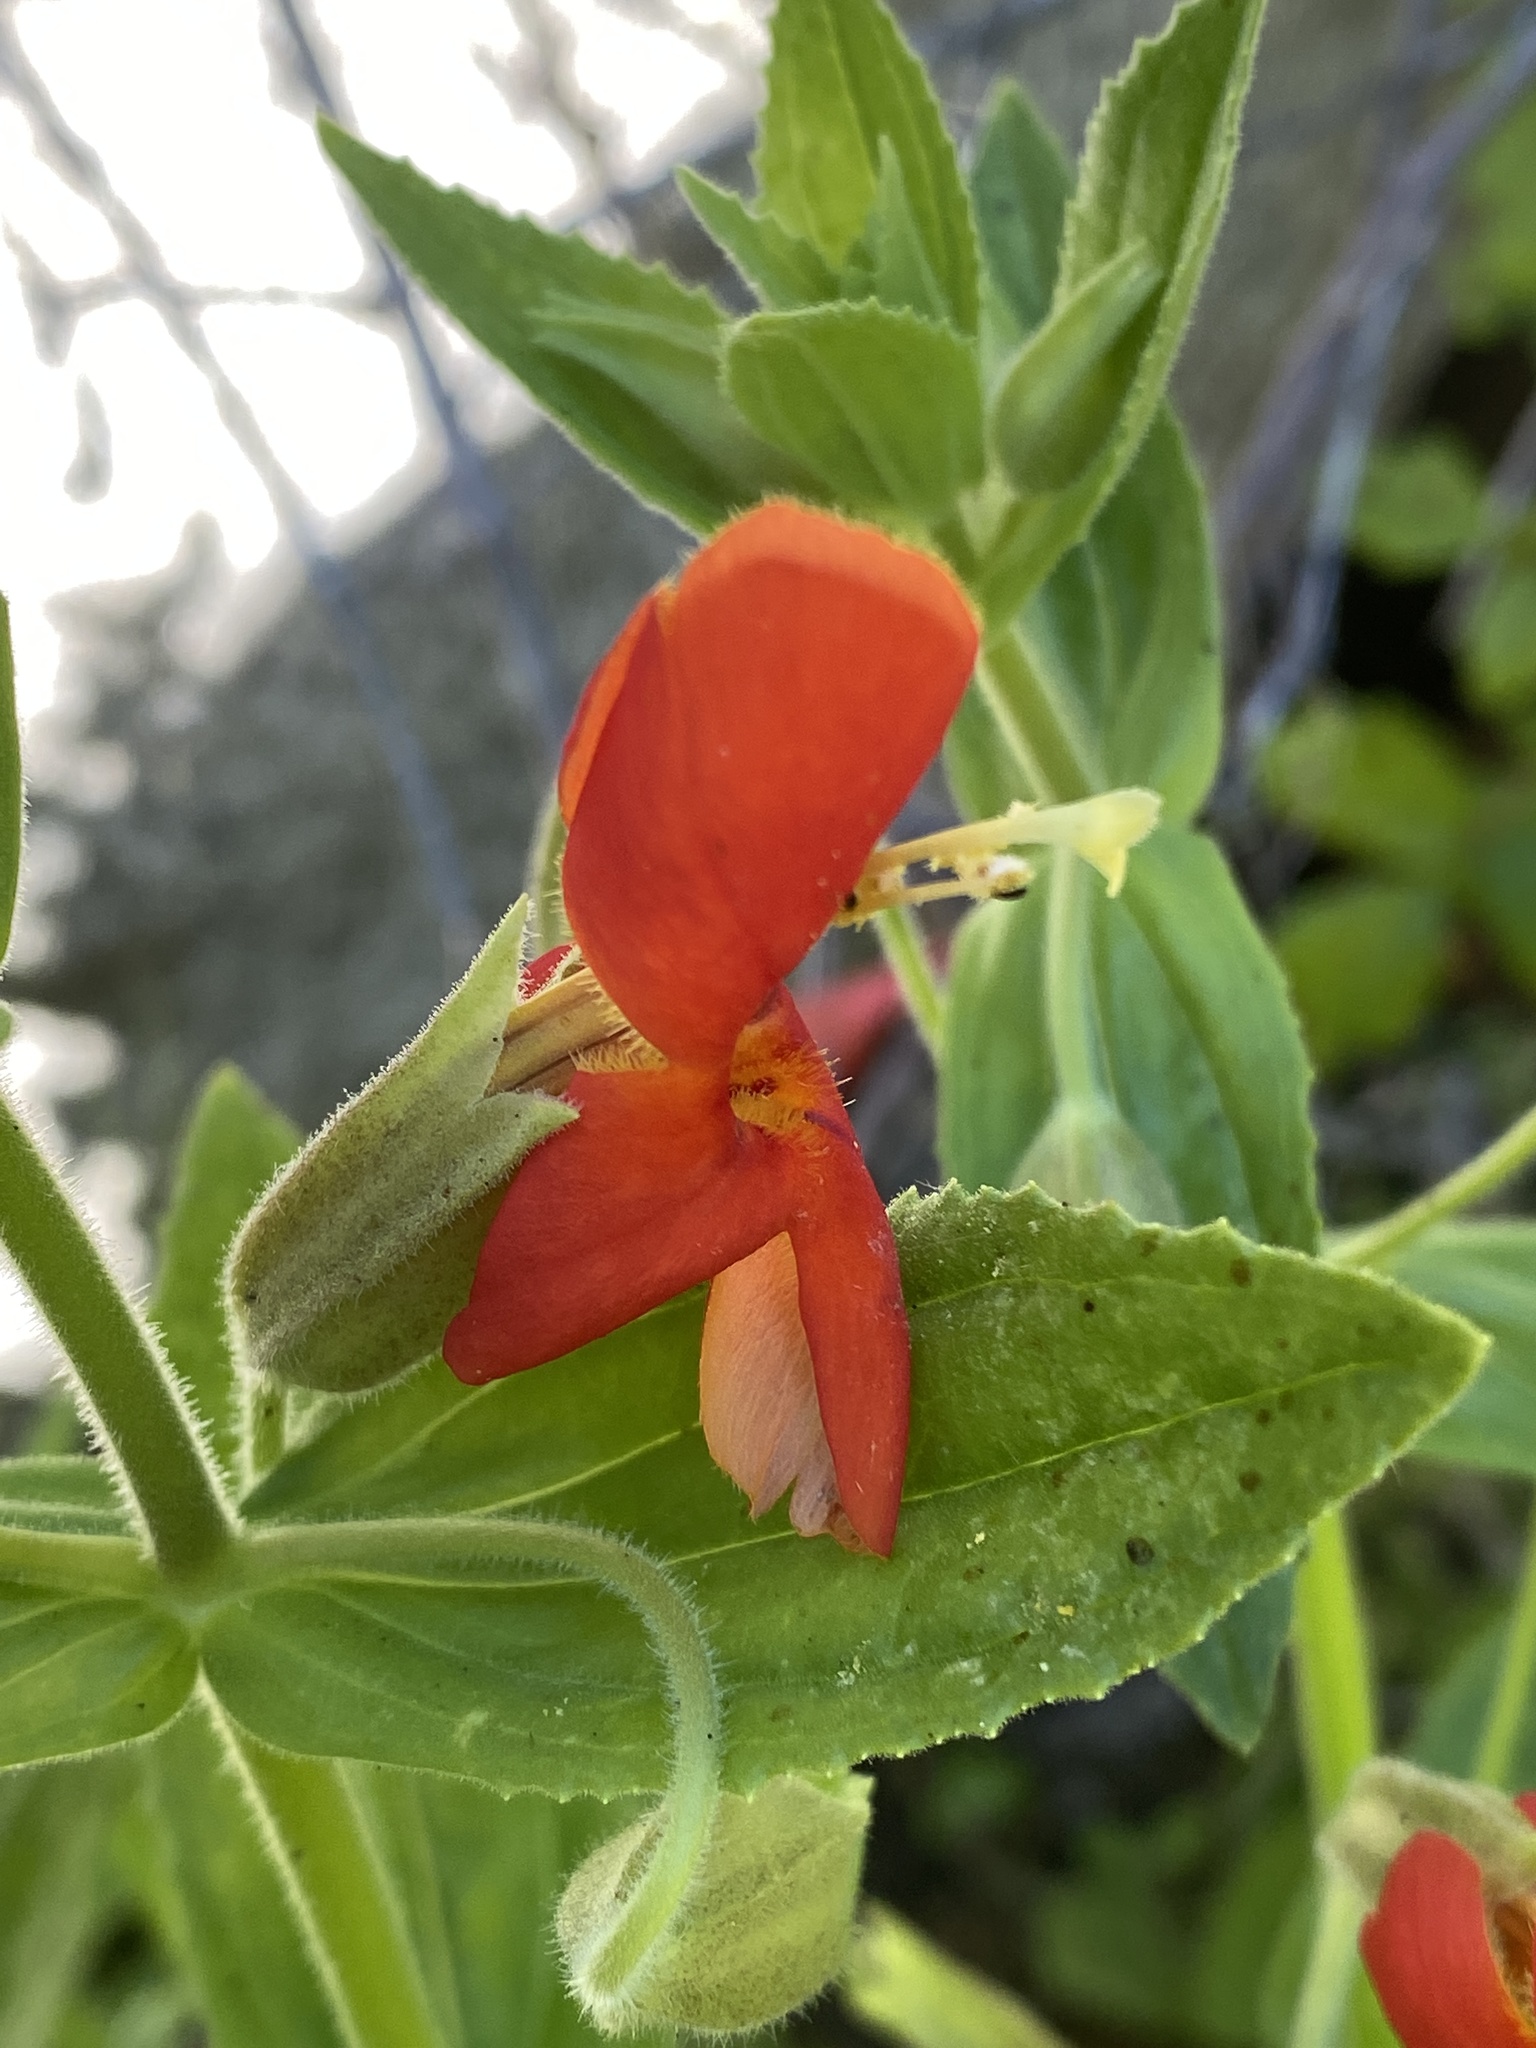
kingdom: Plantae
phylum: Tracheophyta
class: Magnoliopsida
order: Lamiales
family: Phrymaceae
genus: Erythranthe
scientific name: Erythranthe cardinalis
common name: Scarlet monkey-flower
